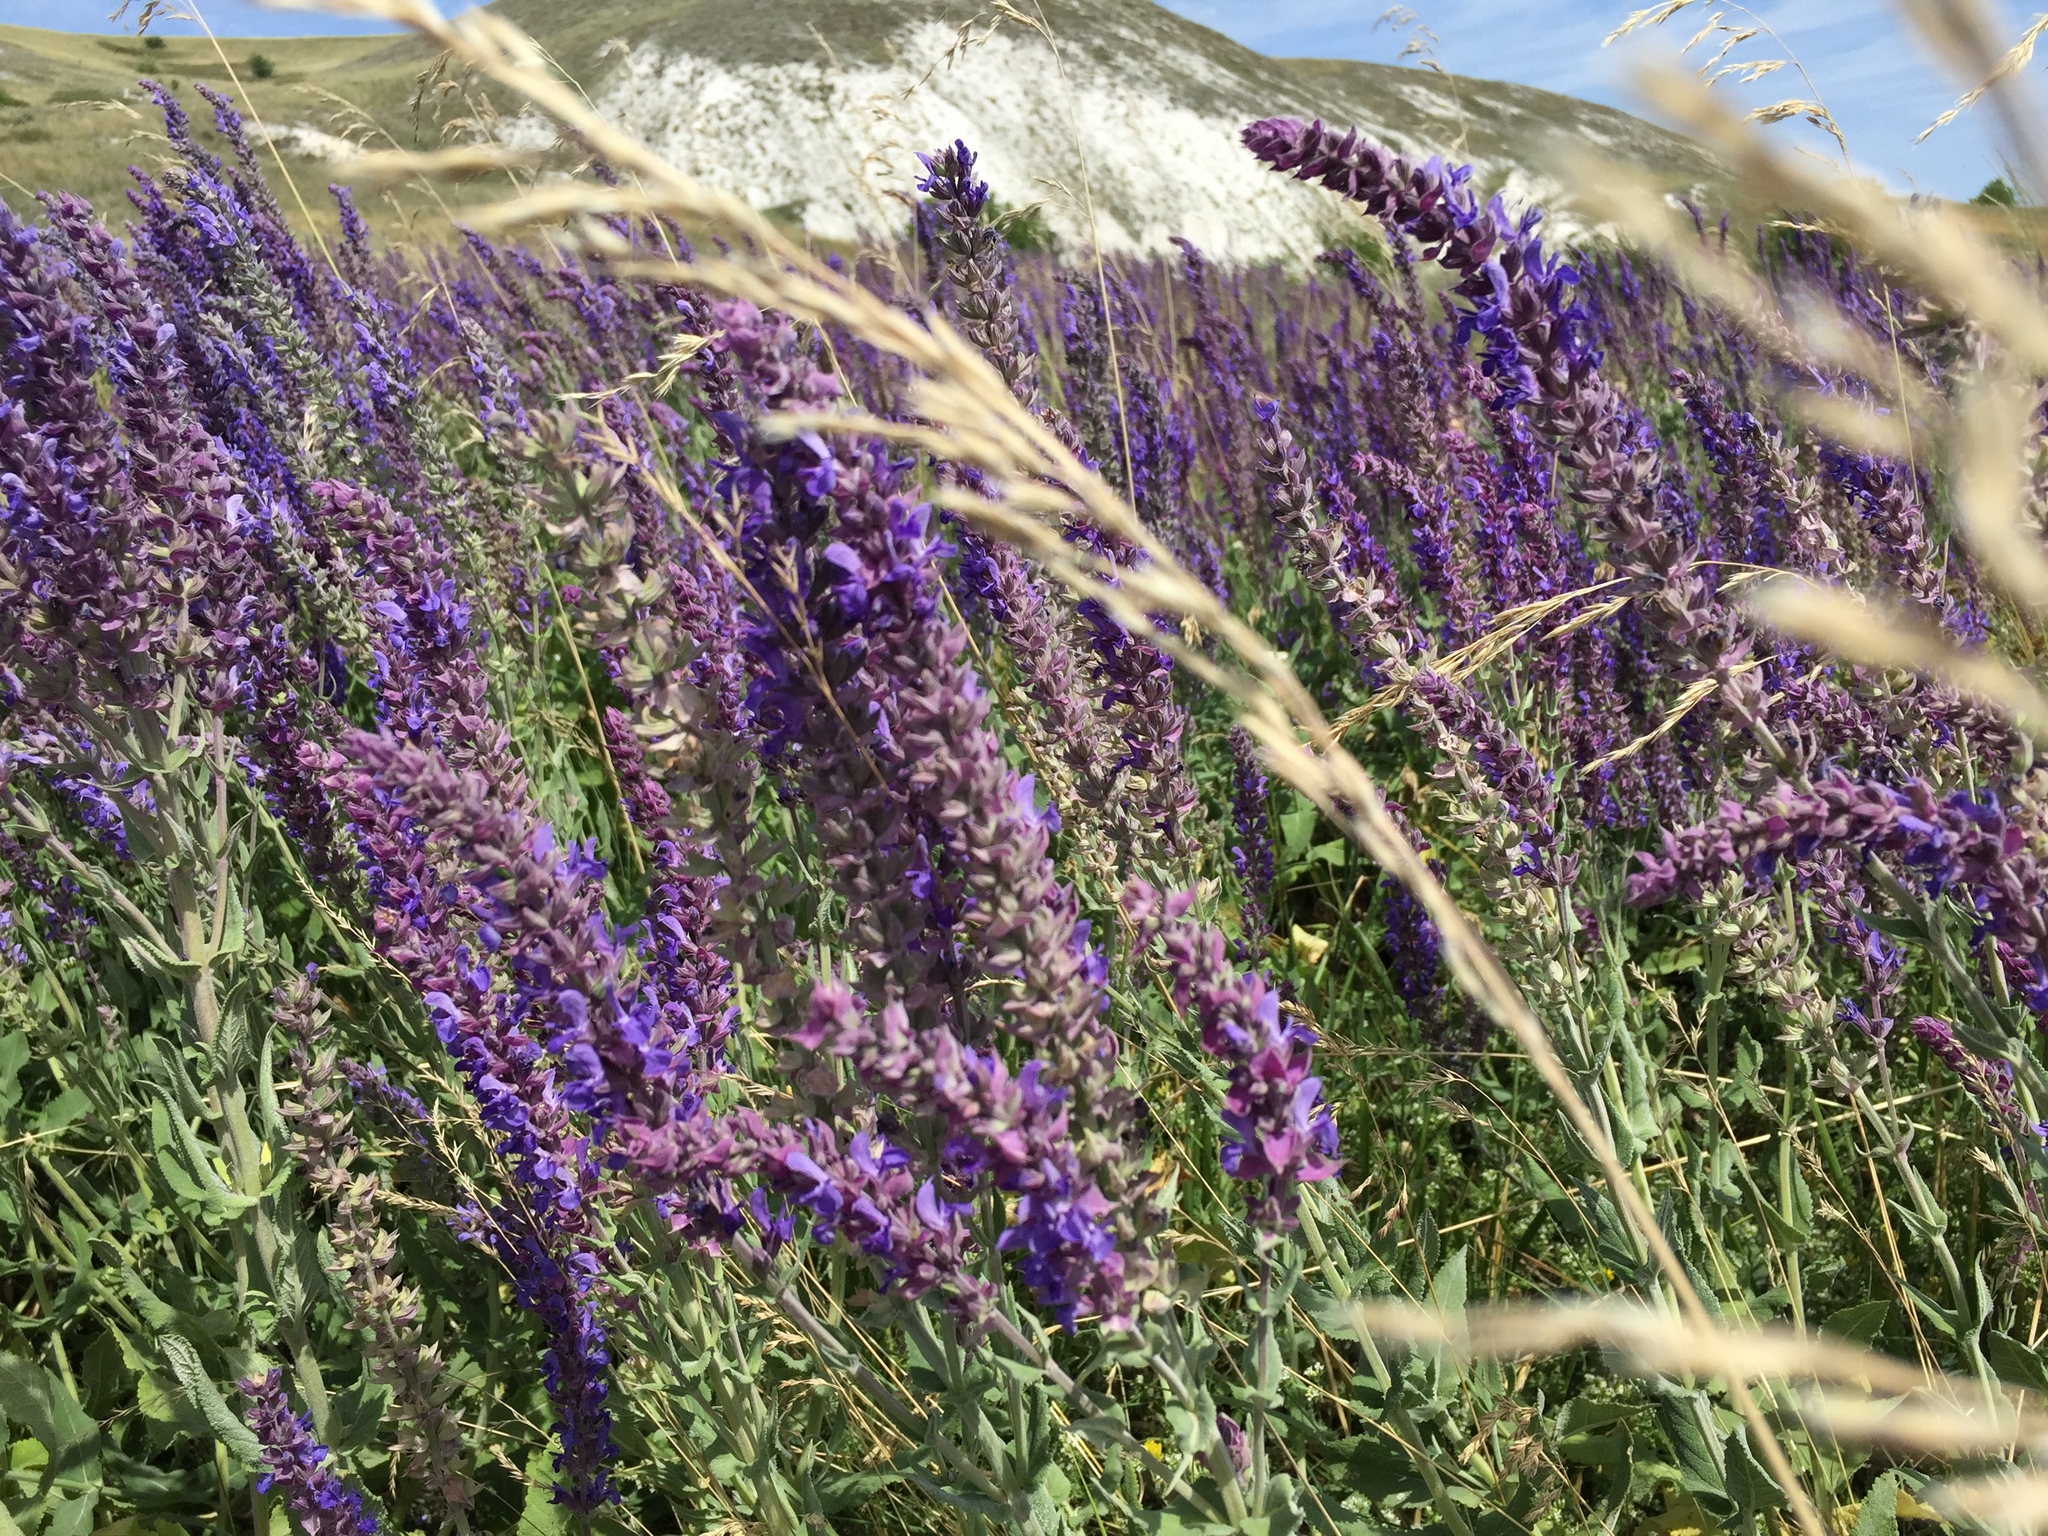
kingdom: Plantae
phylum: Tracheophyta
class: Magnoliopsida
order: Lamiales
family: Lamiaceae
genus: Salvia
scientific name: Salvia nemorosa
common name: Balkan clary
